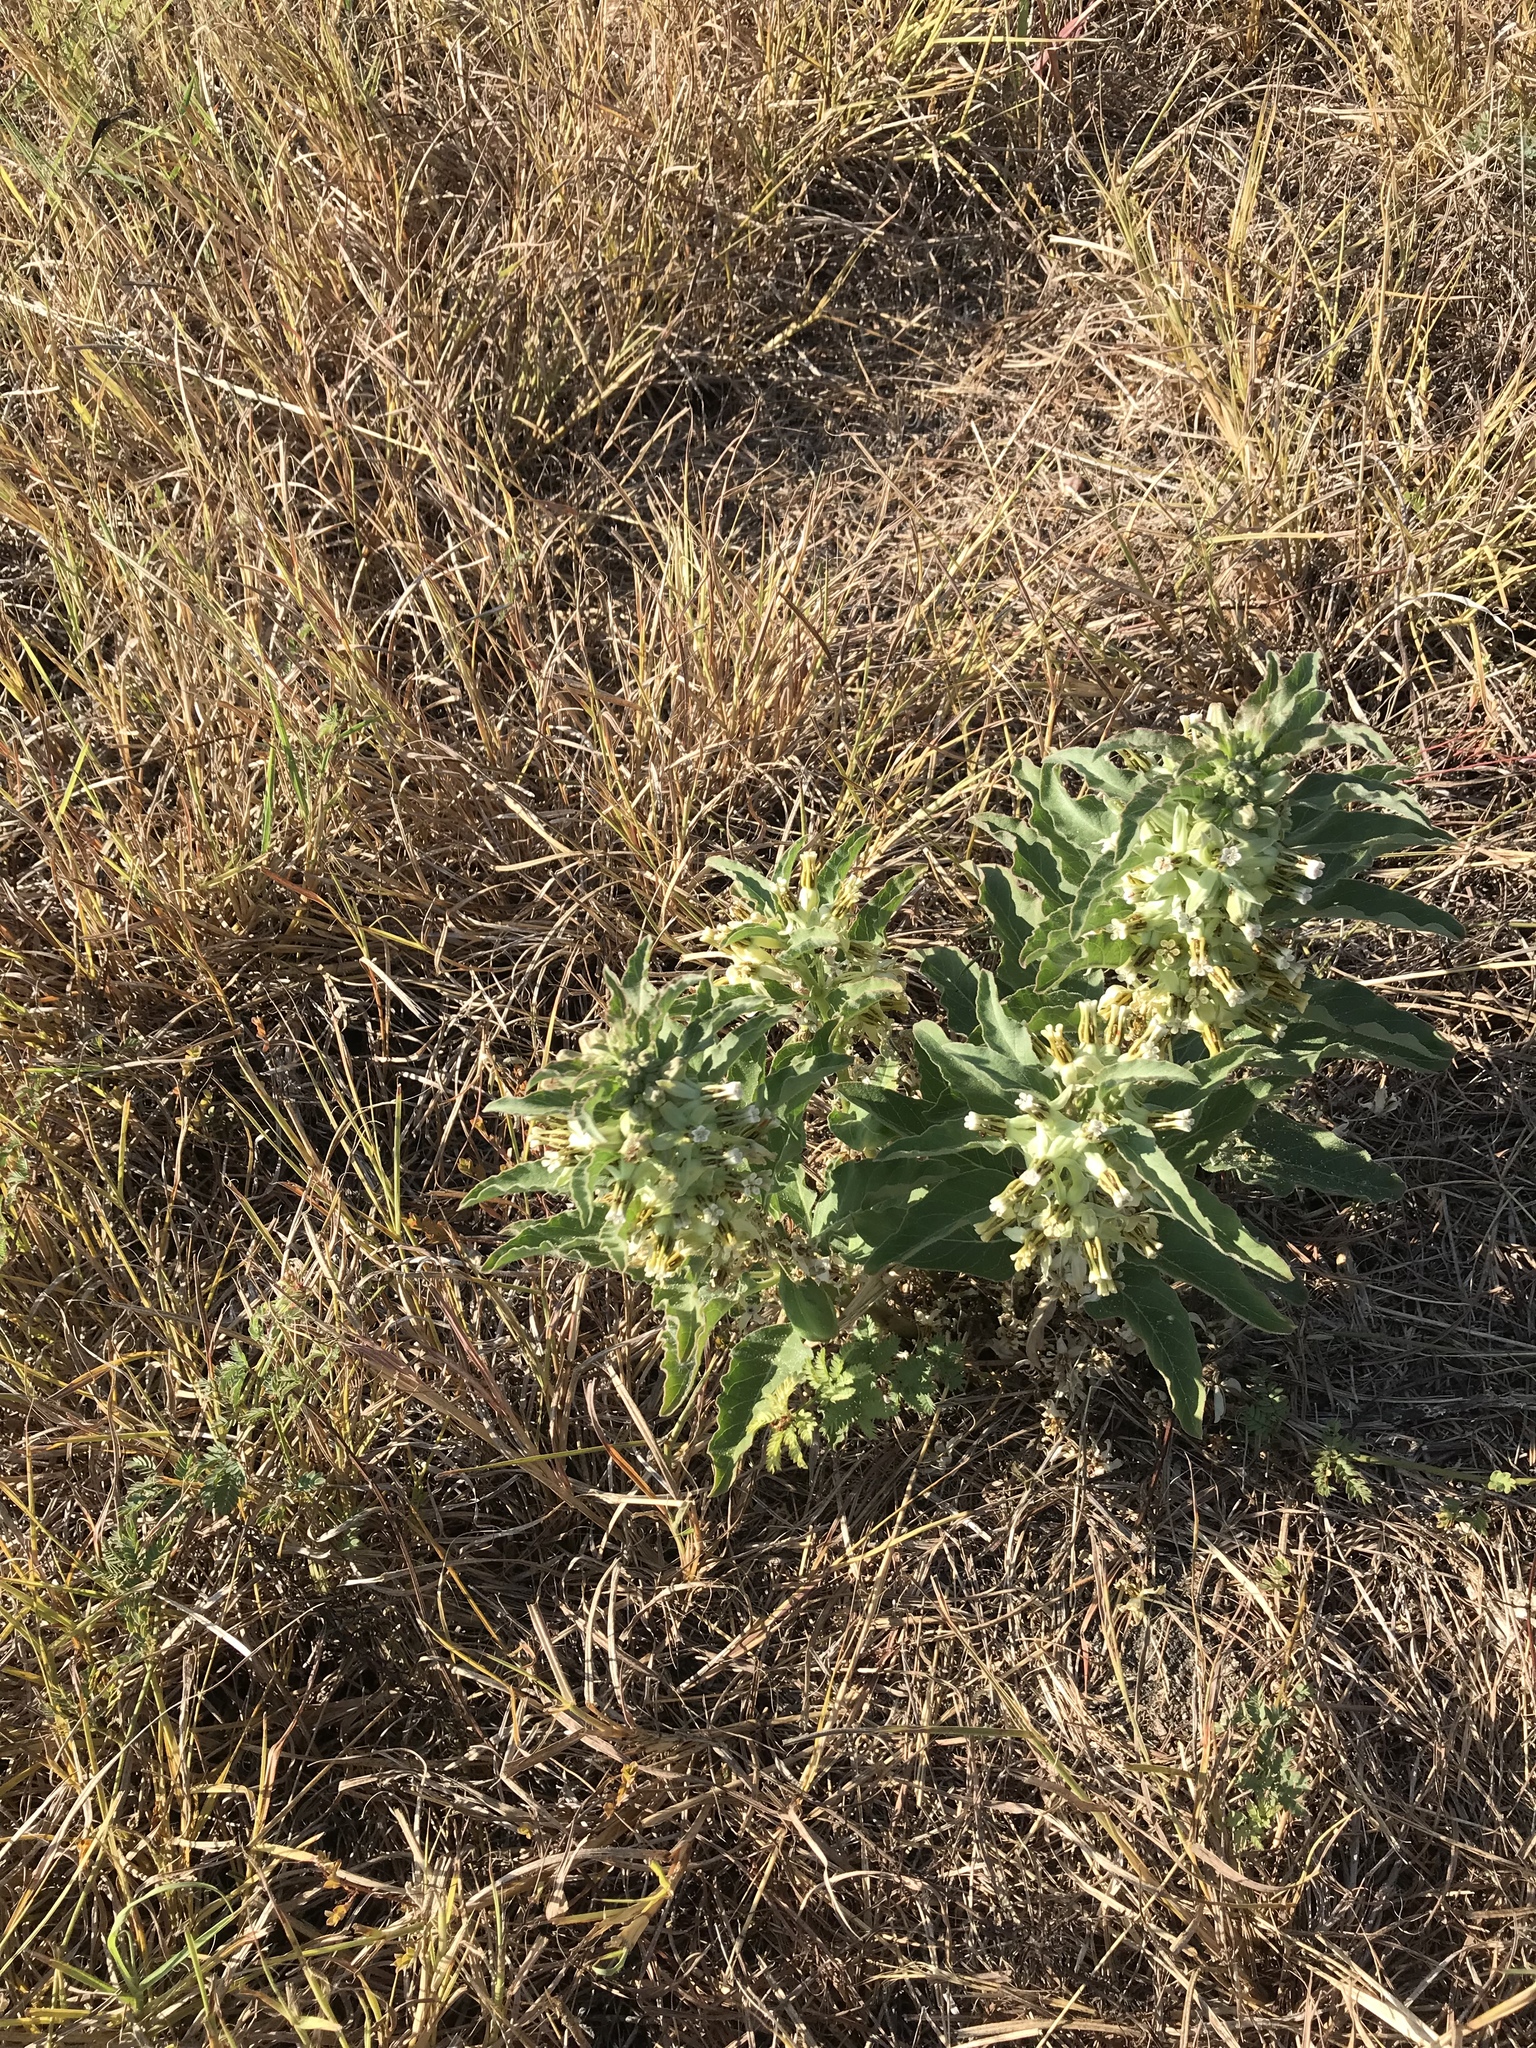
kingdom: Plantae
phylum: Tracheophyta
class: Magnoliopsida
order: Gentianales
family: Apocynaceae
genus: Asclepias
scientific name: Asclepias oenotheroides
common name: Zizotes milkweed
